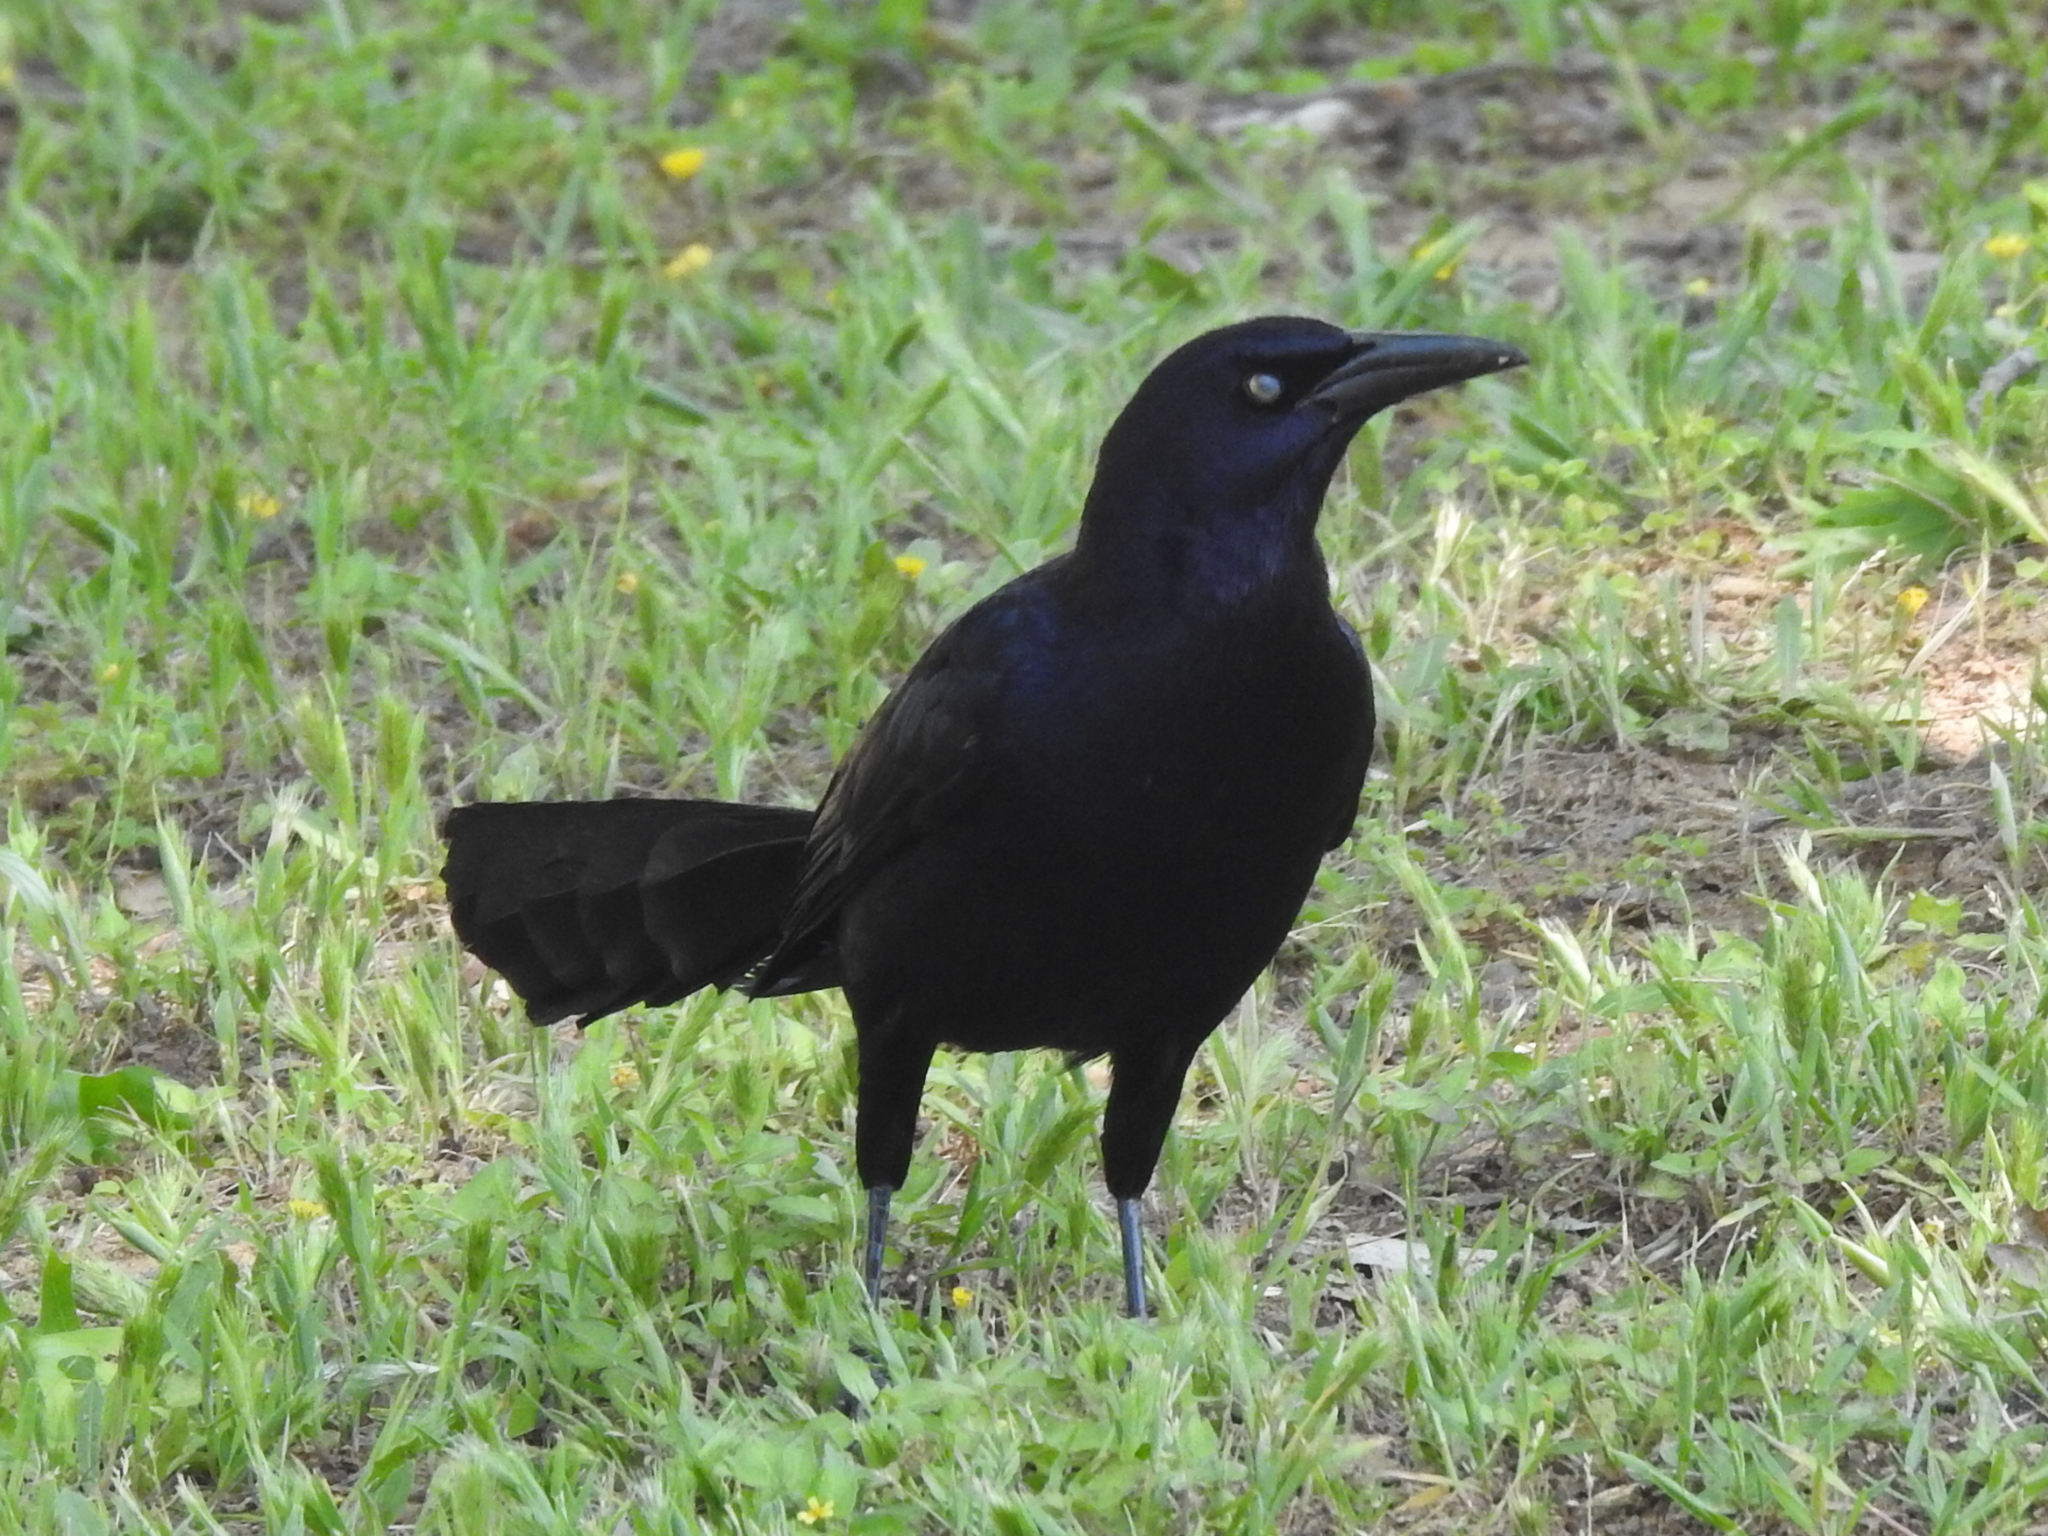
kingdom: Animalia
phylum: Chordata
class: Aves
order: Passeriformes
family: Icteridae
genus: Quiscalus
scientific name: Quiscalus mexicanus
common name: Great-tailed grackle
